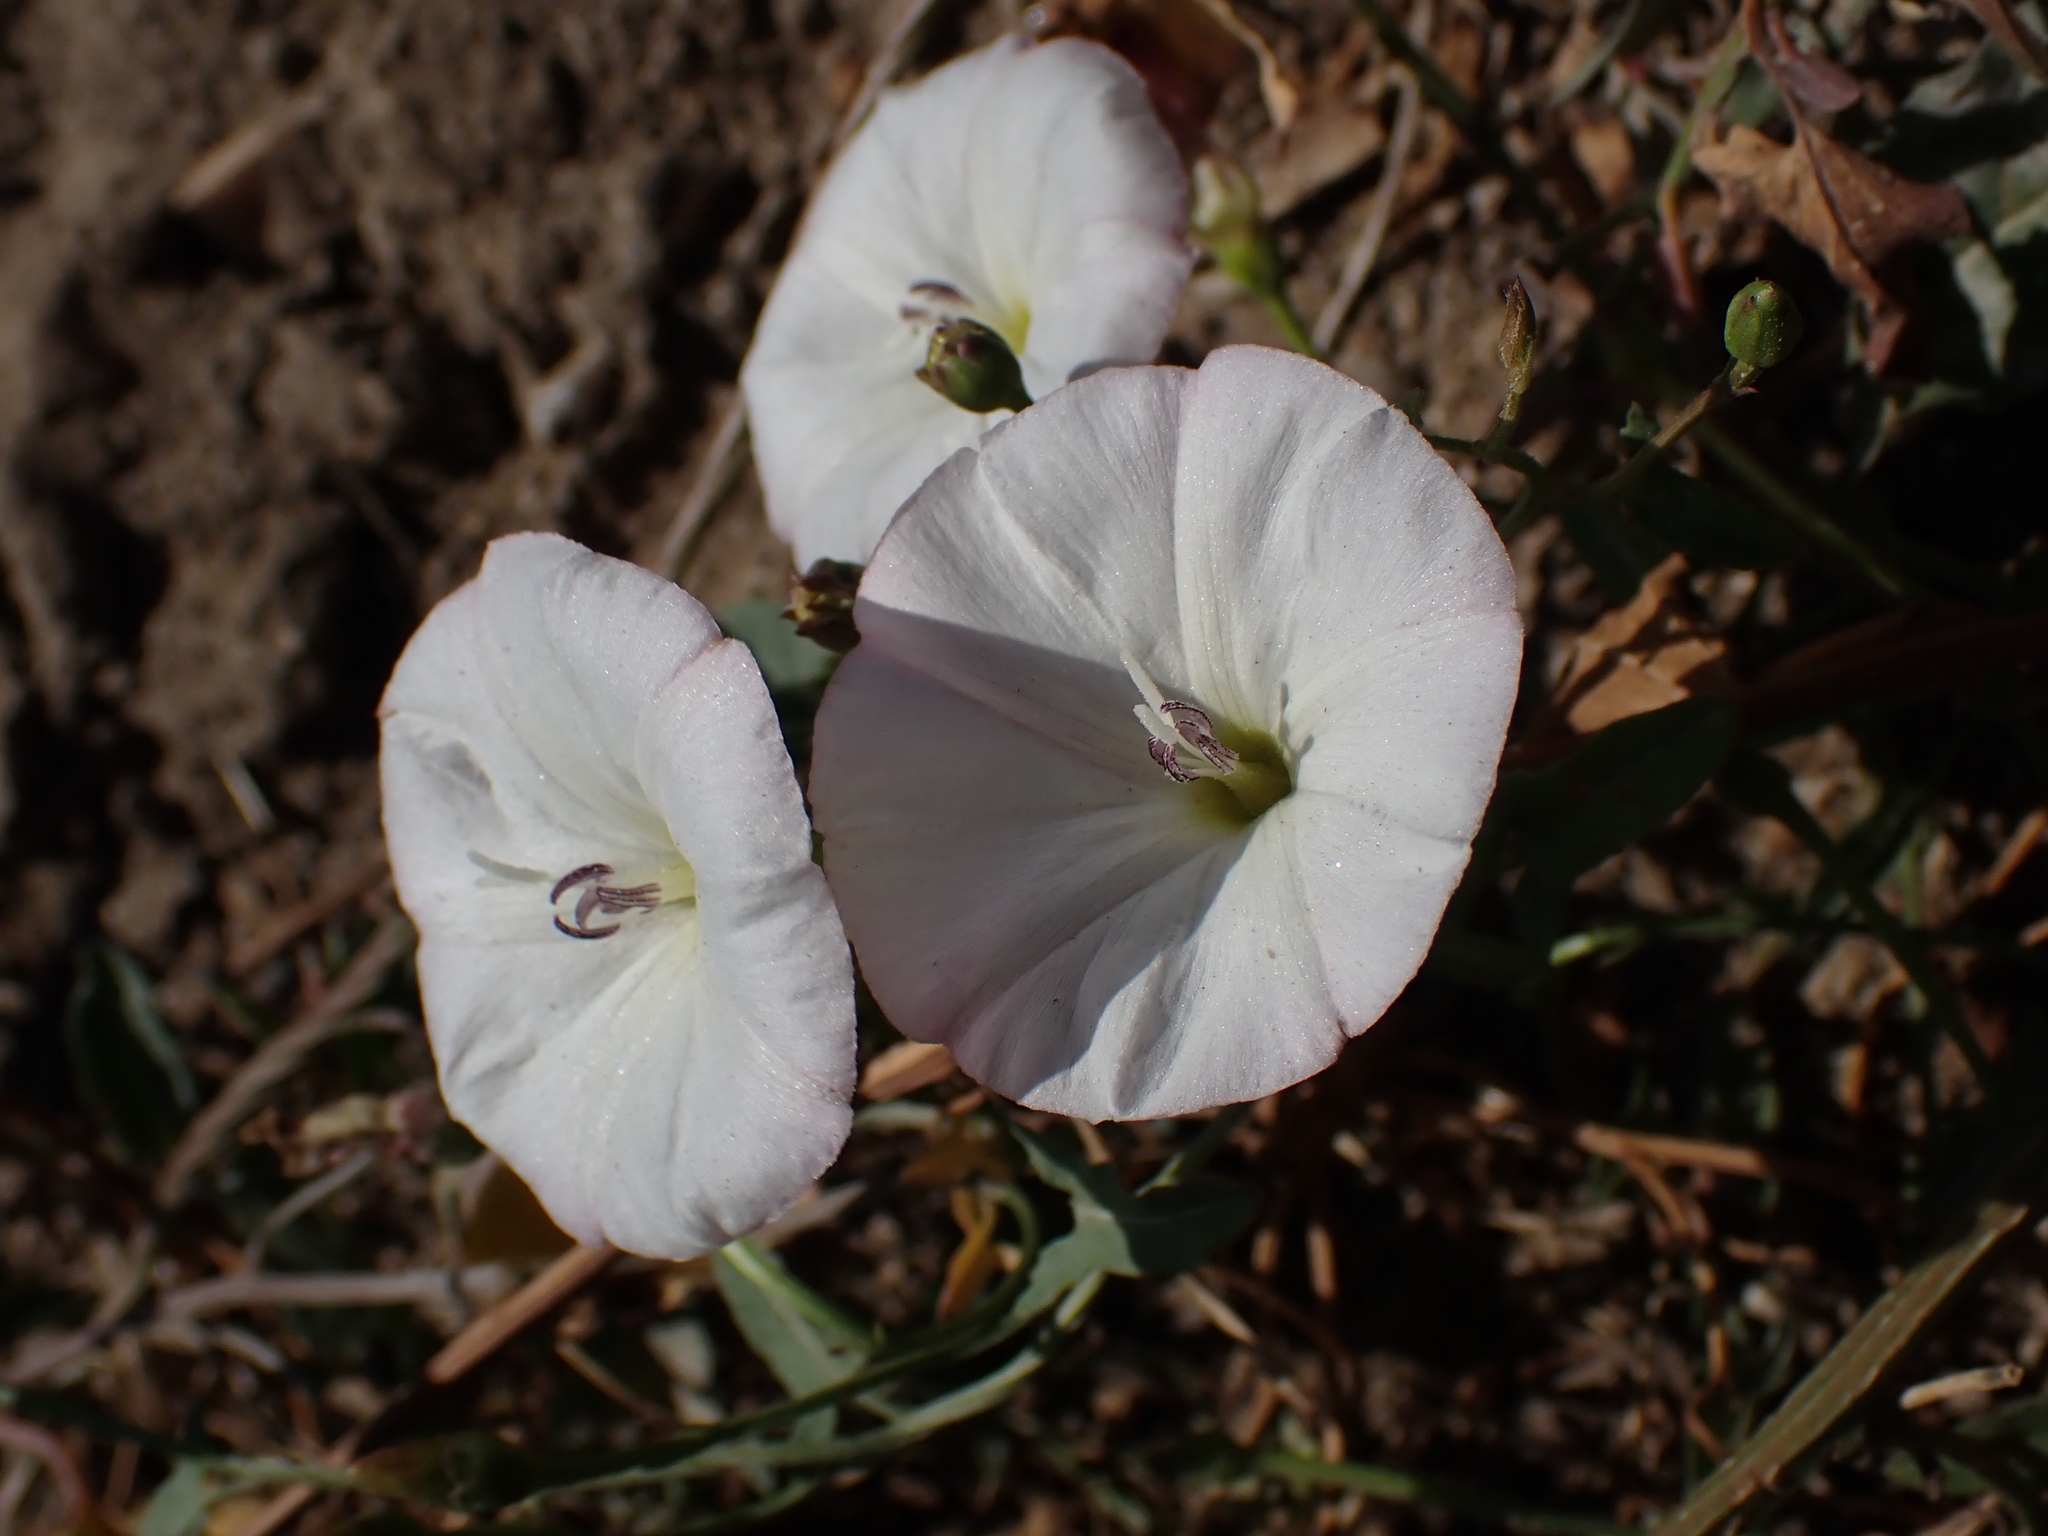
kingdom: Plantae
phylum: Tracheophyta
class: Magnoliopsida
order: Solanales
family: Convolvulaceae
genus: Convolvulus
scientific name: Convolvulus arvensis
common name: Field bindweed
